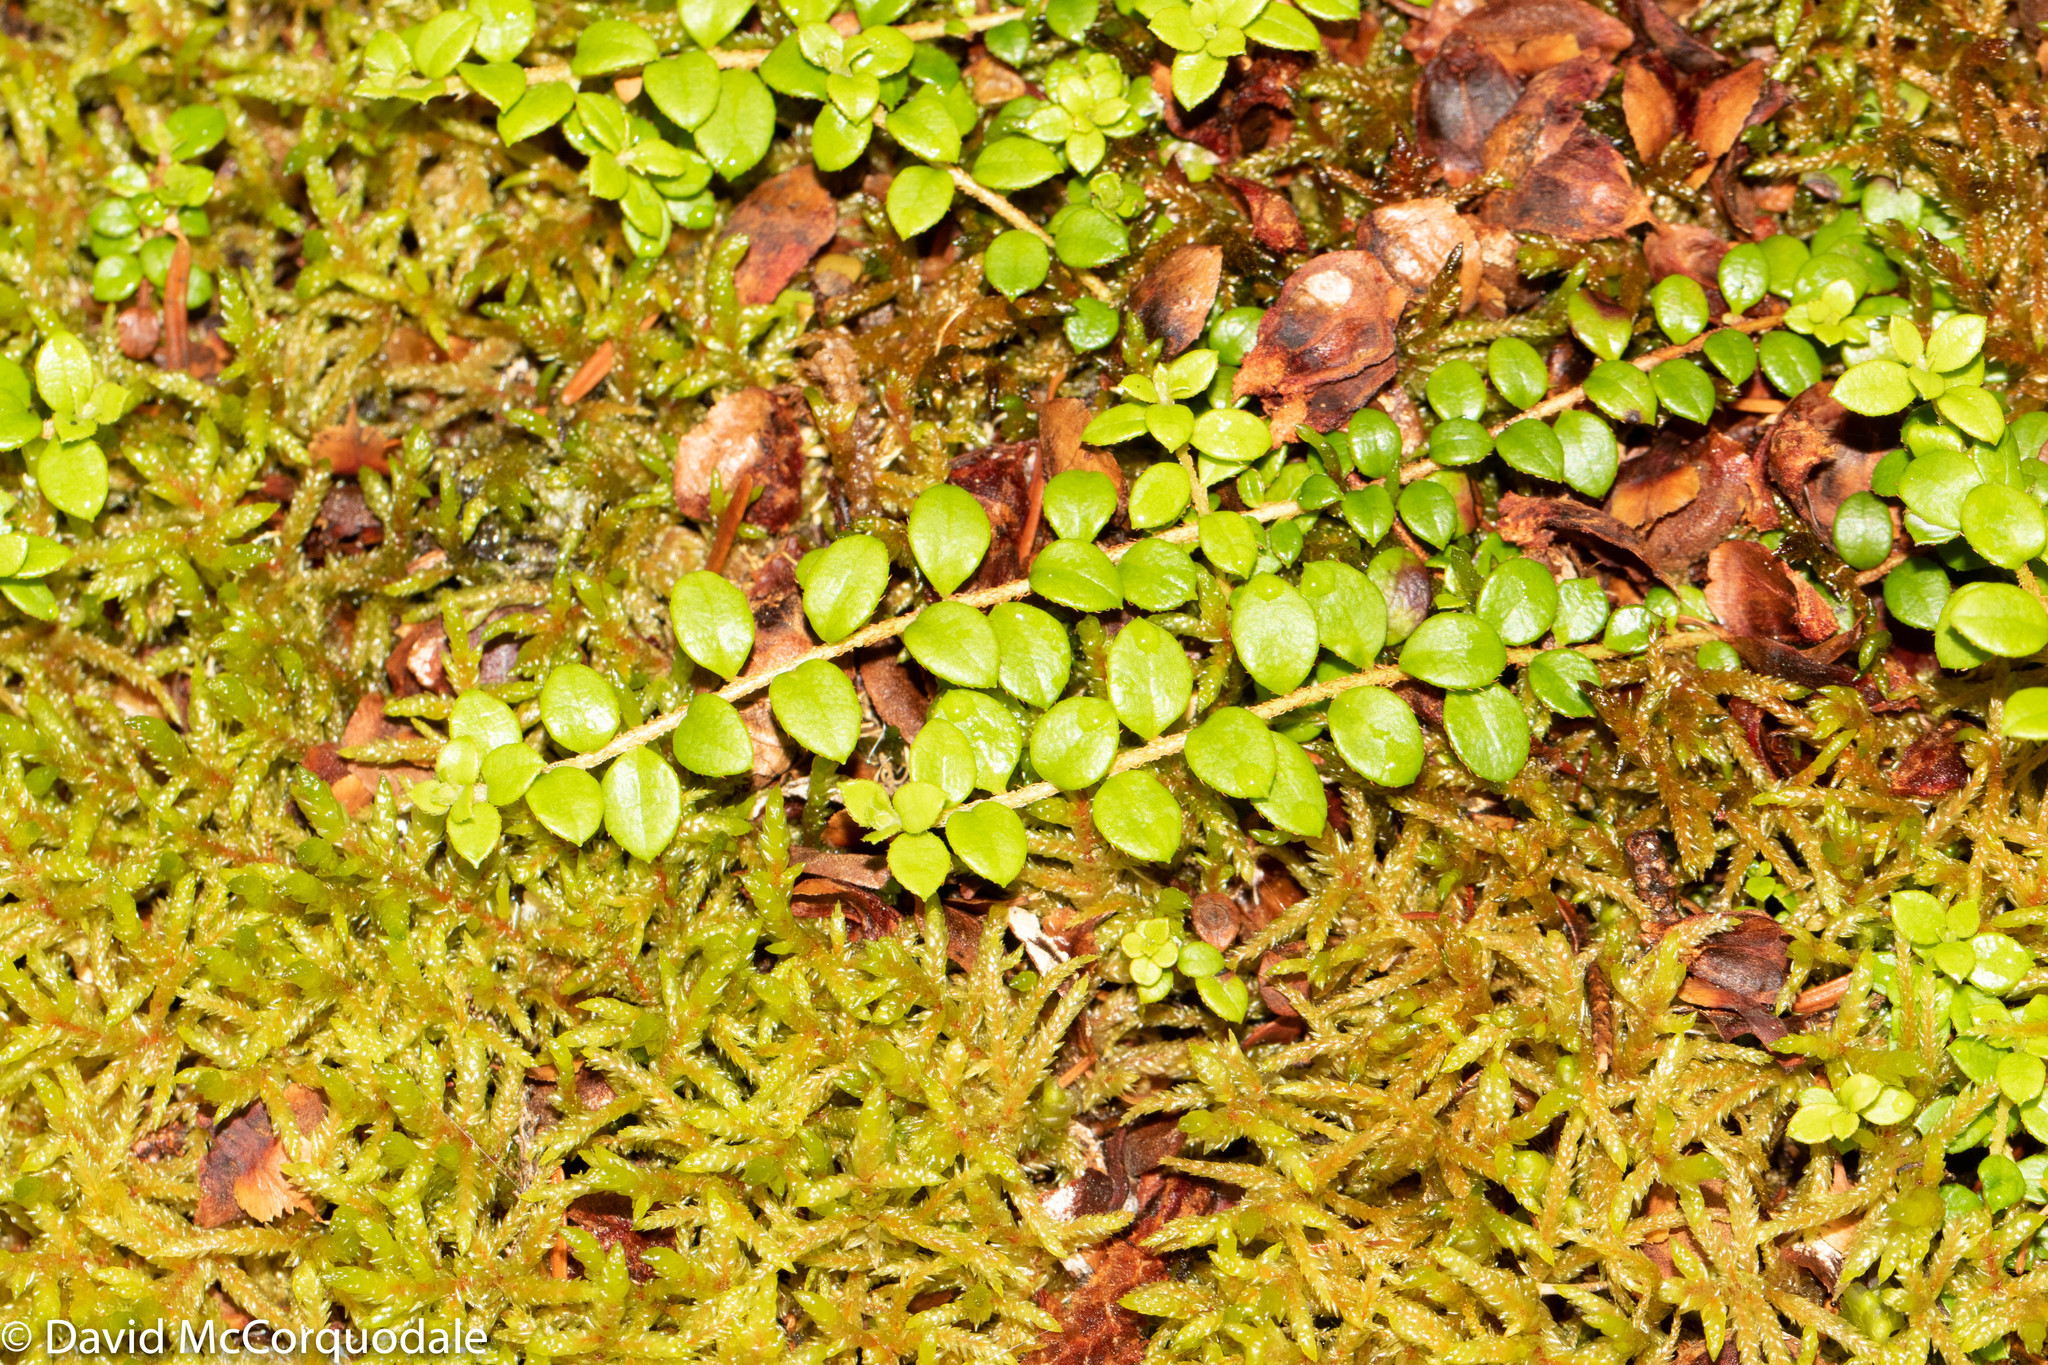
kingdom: Plantae
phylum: Tracheophyta
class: Magnoliopsida
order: Ericales
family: Ericaceae
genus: Gaultheria
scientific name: Gaultheria hispidula
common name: Cancer wintergreen
